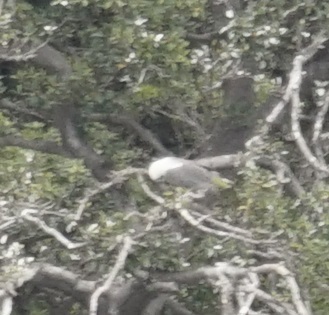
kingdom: Animalia
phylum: Chordata
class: Aves
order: Accipitriformes
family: Accipitridae
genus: Haliaeetus
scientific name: Haliaeetus leucogaster
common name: White-bellied sea eagle
